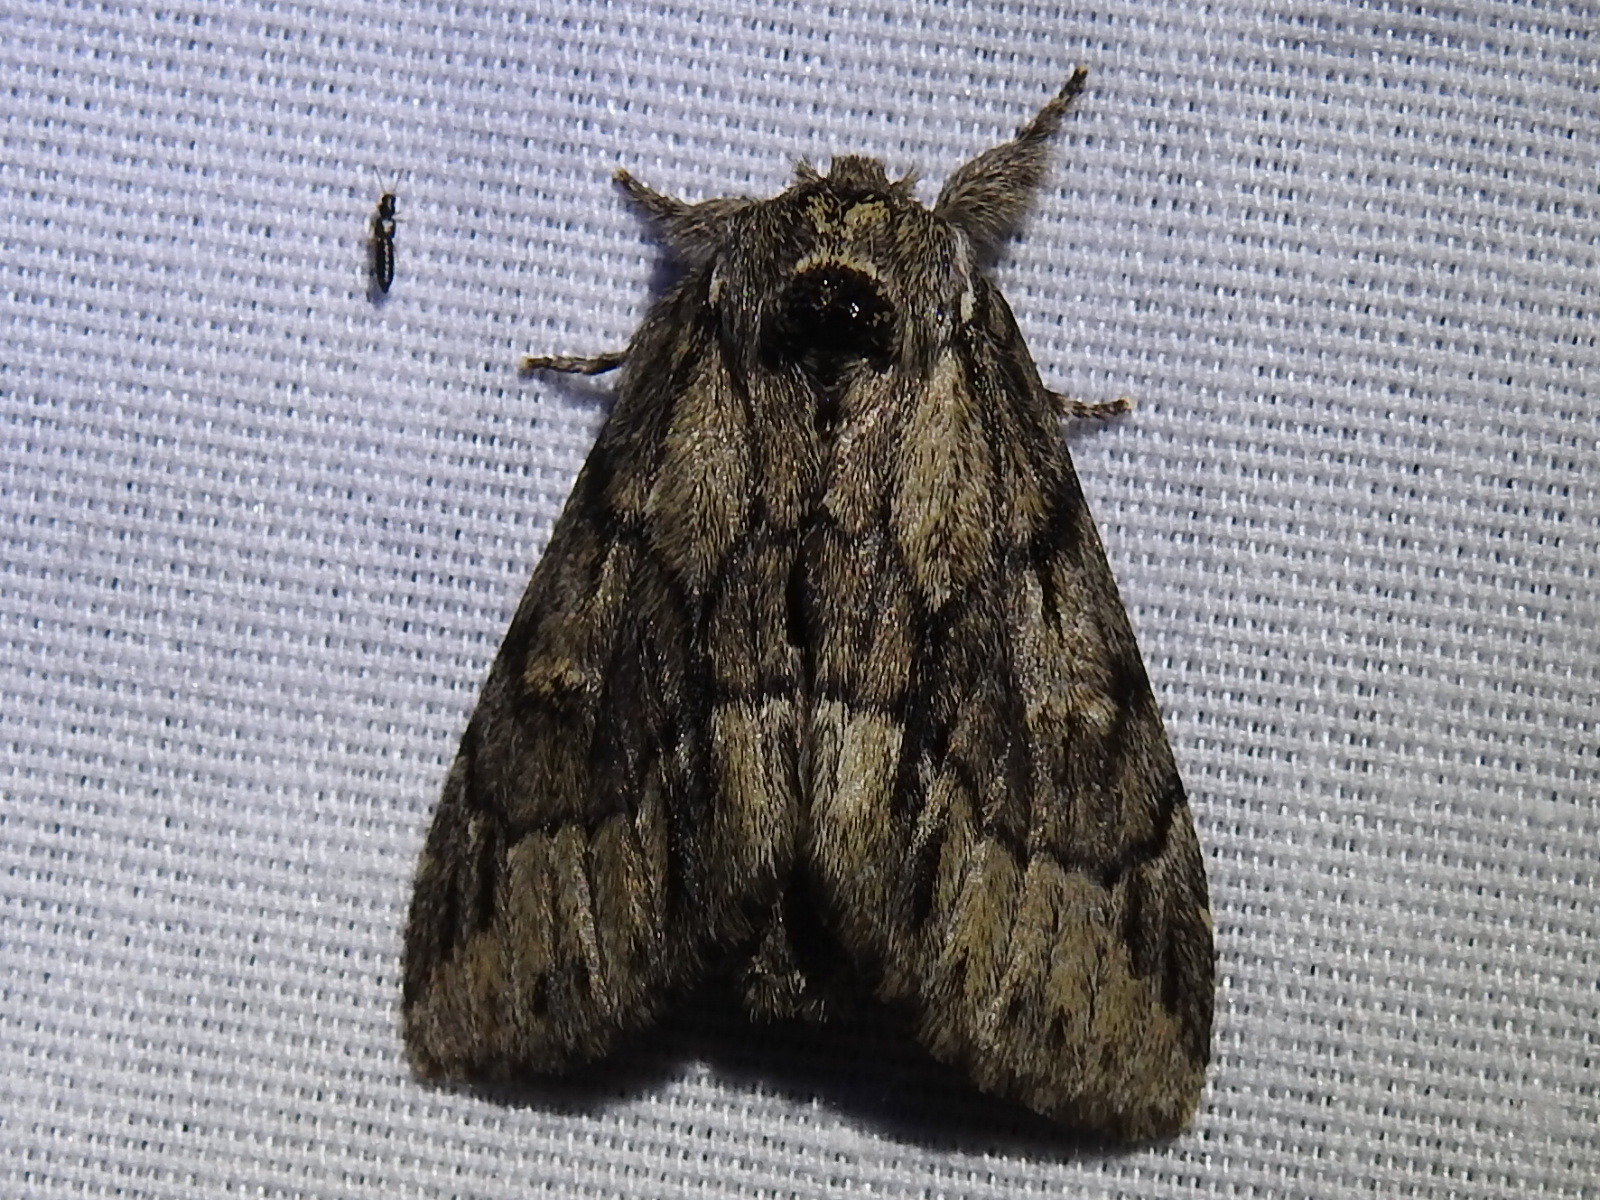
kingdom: Animalia
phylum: Arthropoda
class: Insecta
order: Lepidoptera
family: Notodontidae
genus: Paraeschra
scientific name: Paraeschra georgica
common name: Georgian prominent
